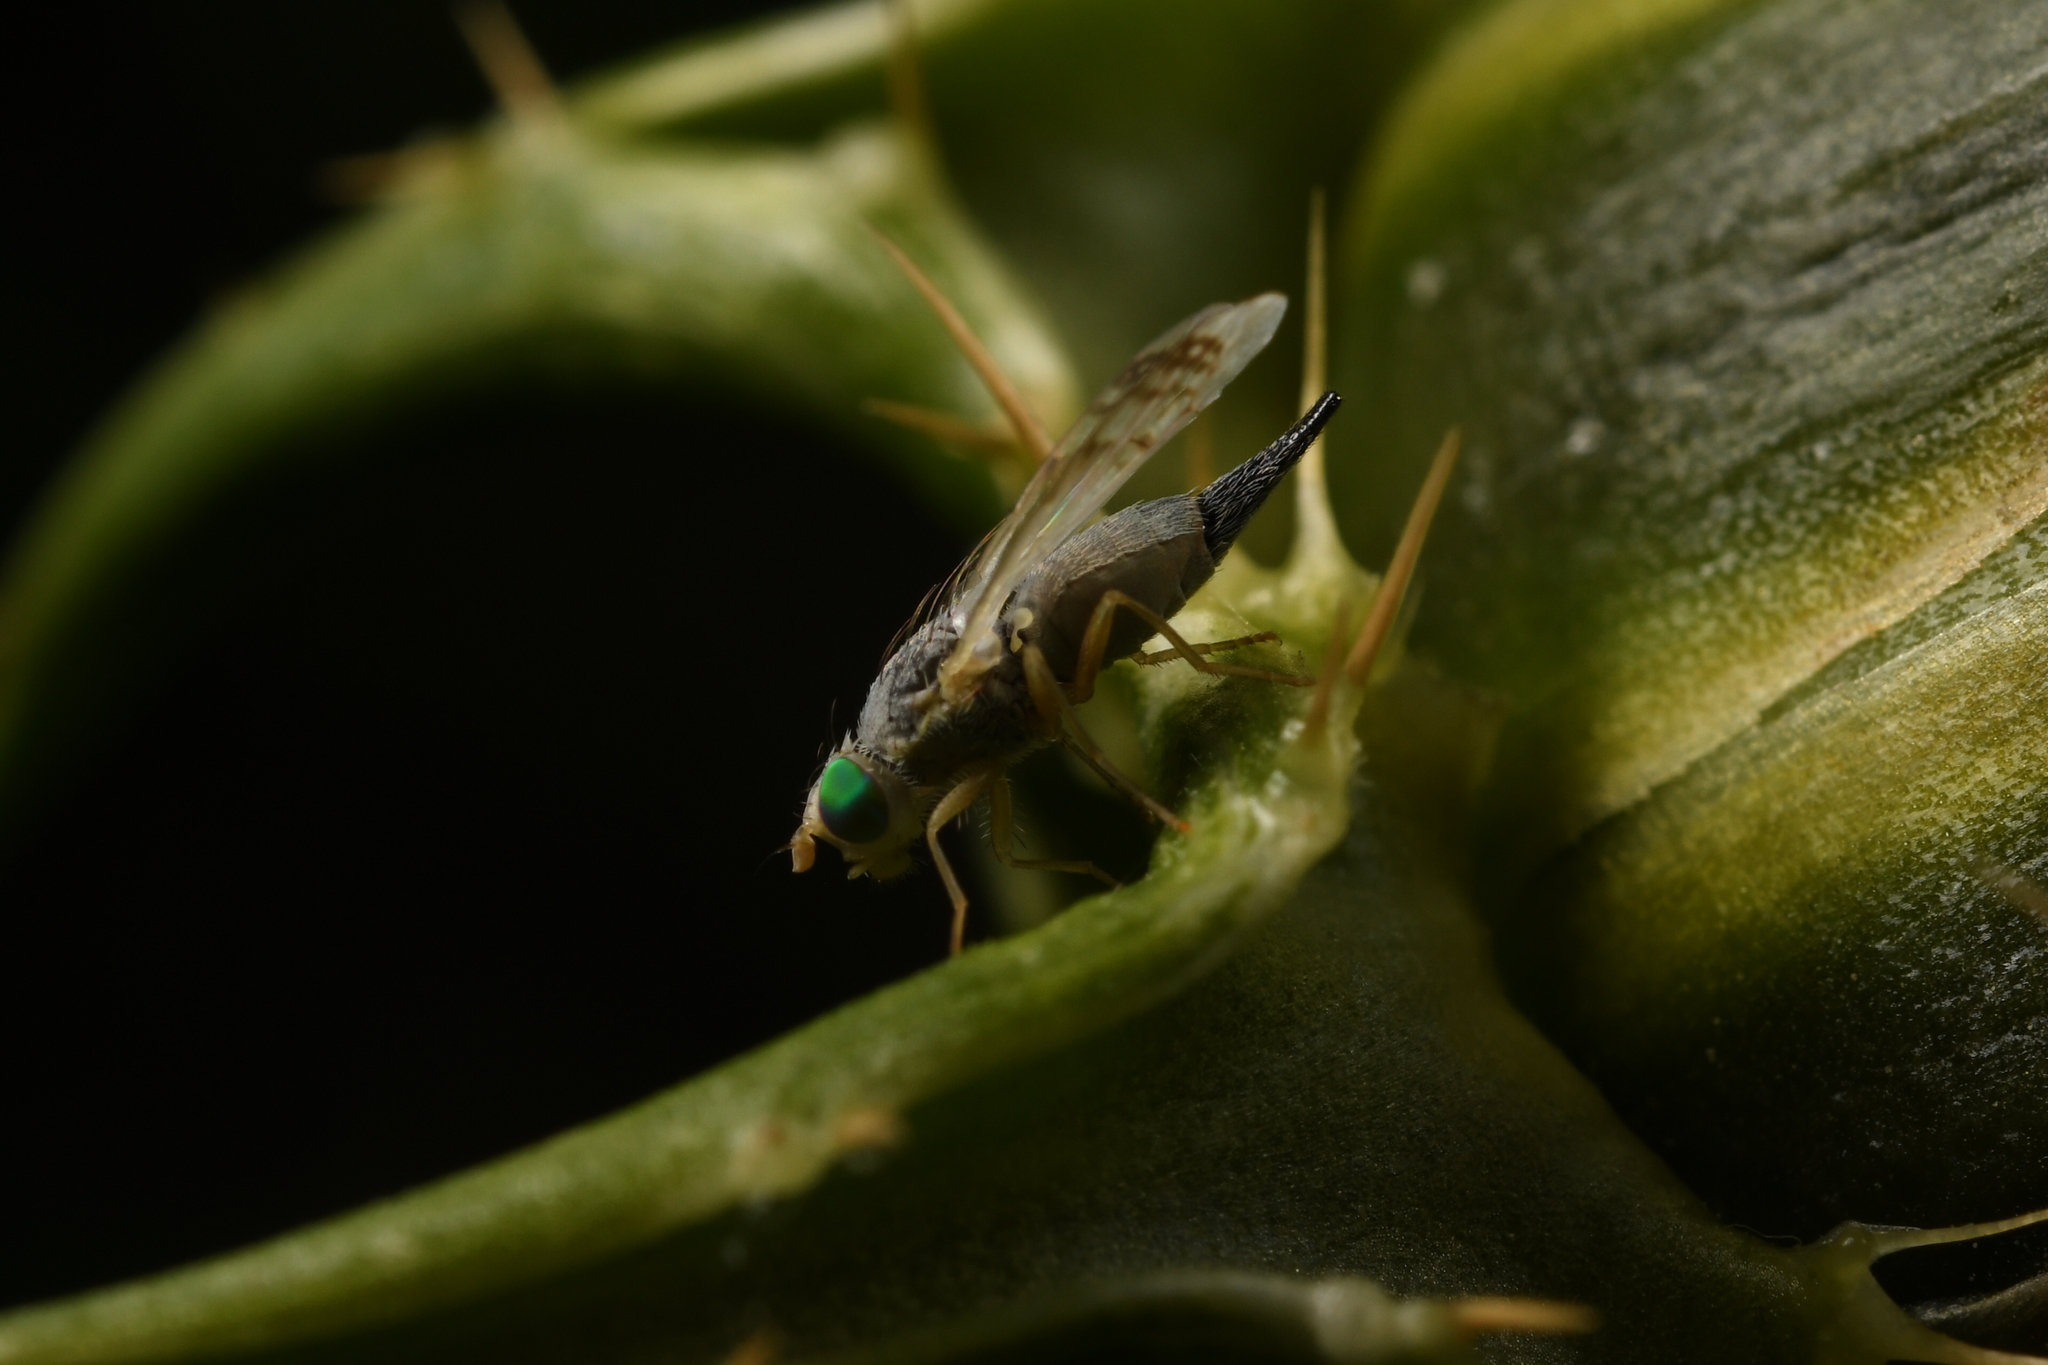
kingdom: Animalia
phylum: Arthropoda
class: Insecta
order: Diptera
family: Tephritidae
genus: Acanthiophilus
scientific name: Acanthiophilus helianthi
